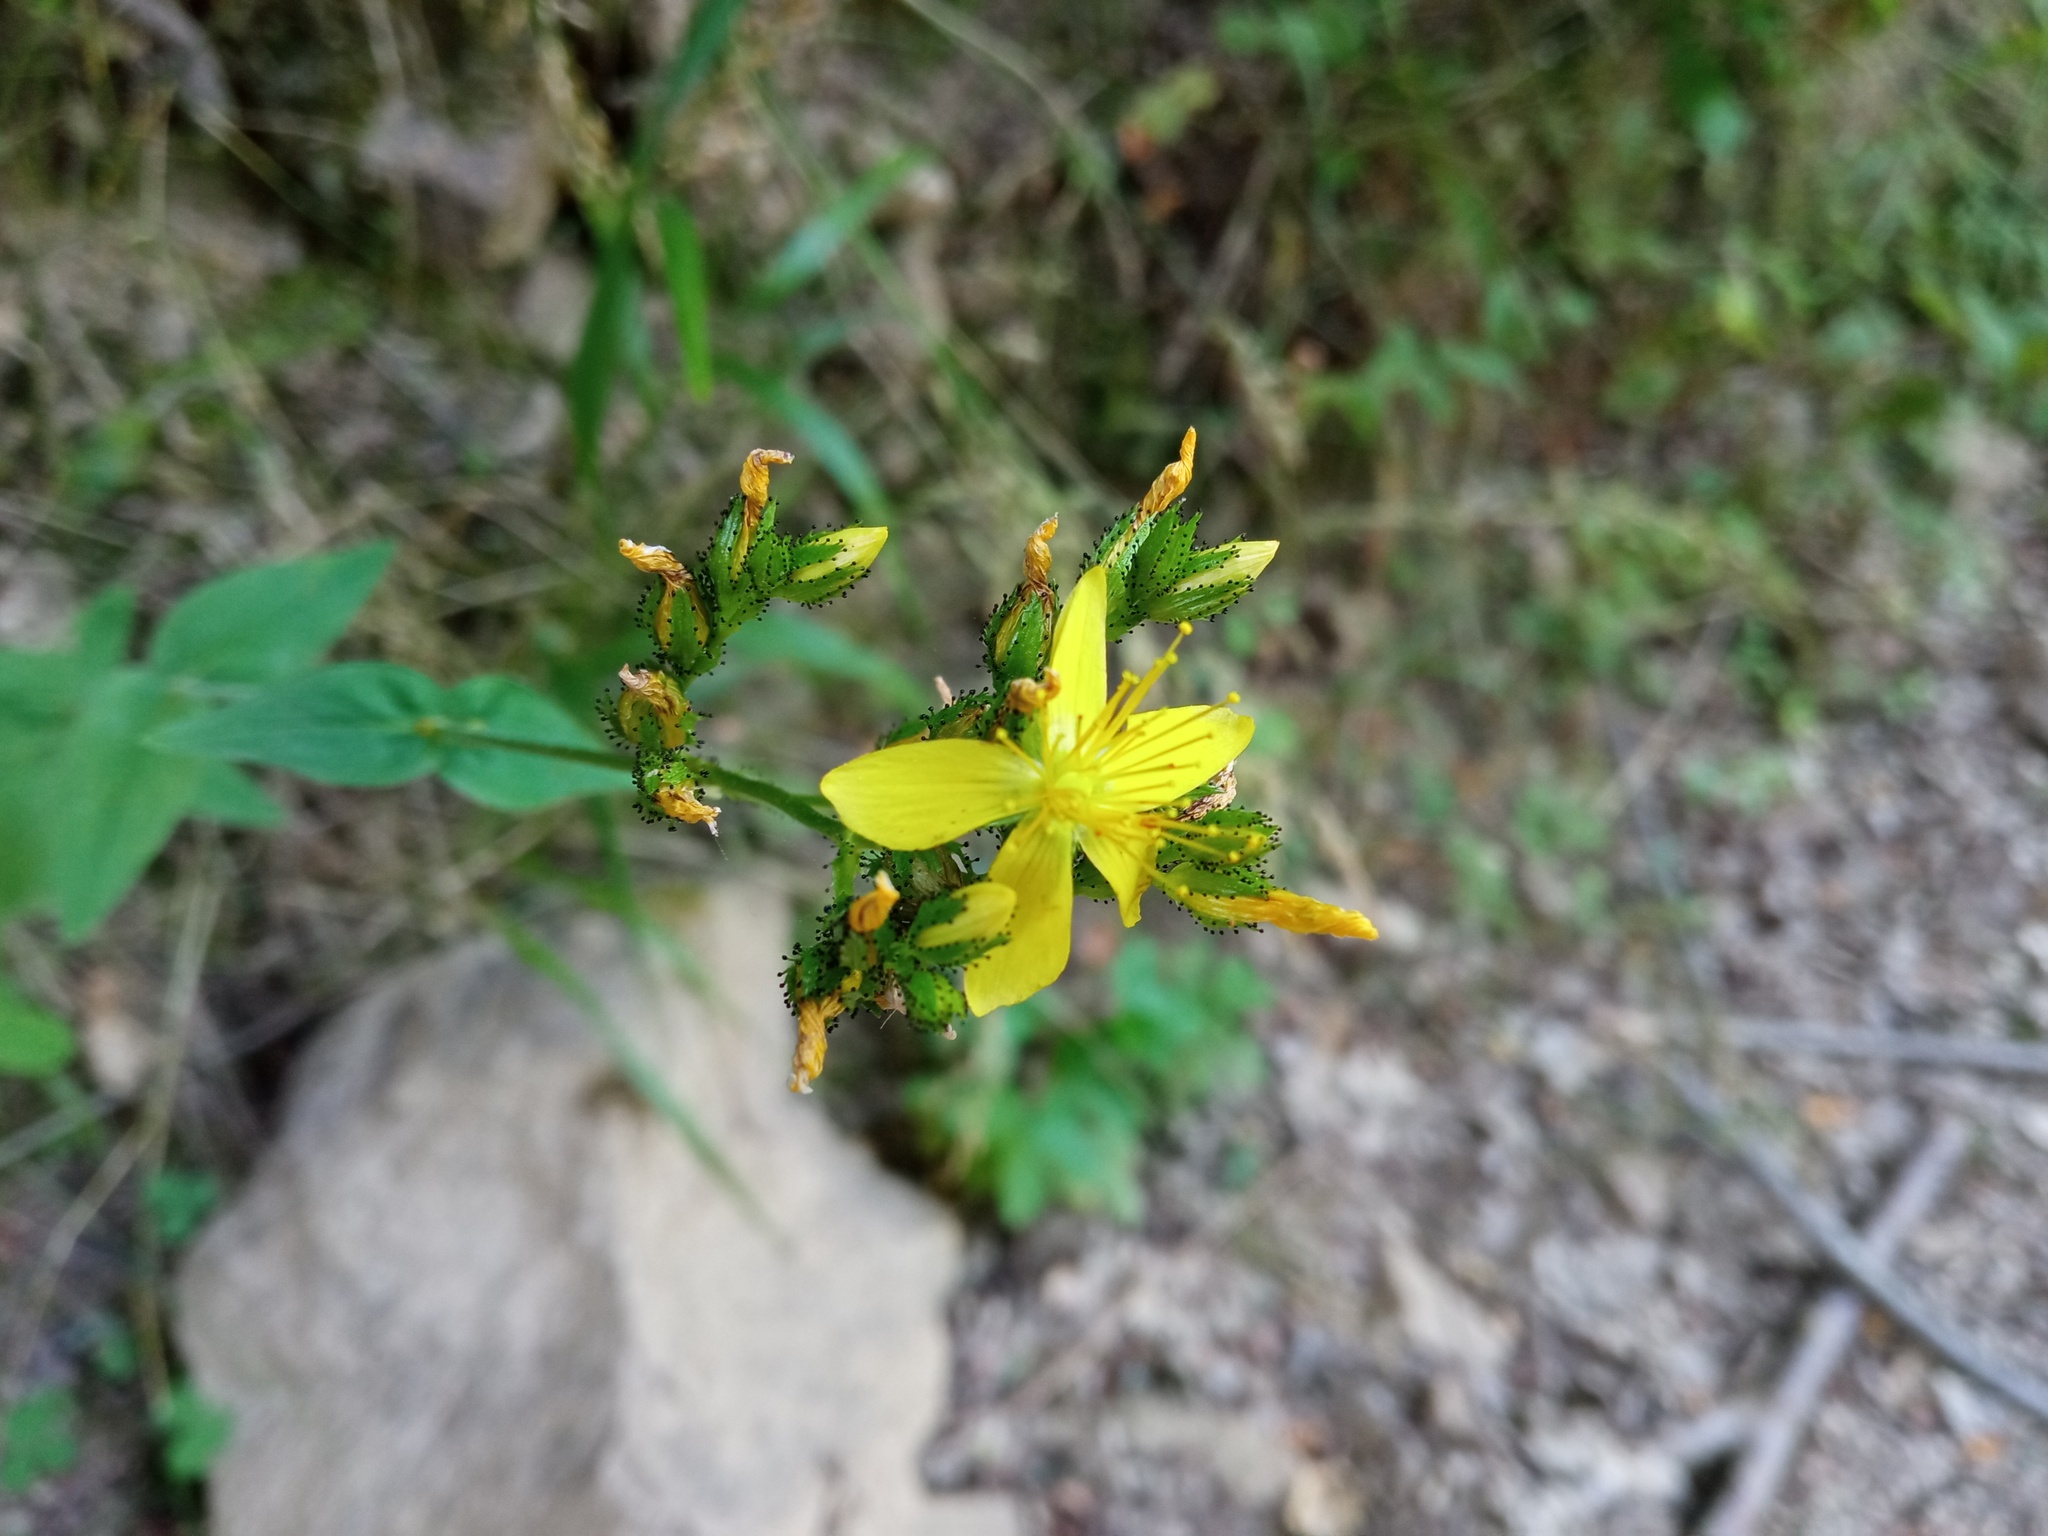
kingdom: Plantae
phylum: Tracheophyta
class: Magnoliopsida
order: Malpighiales
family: Hypericaceae
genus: Hypericum
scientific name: Hypericum montanum
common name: Pale st. john's-wort
